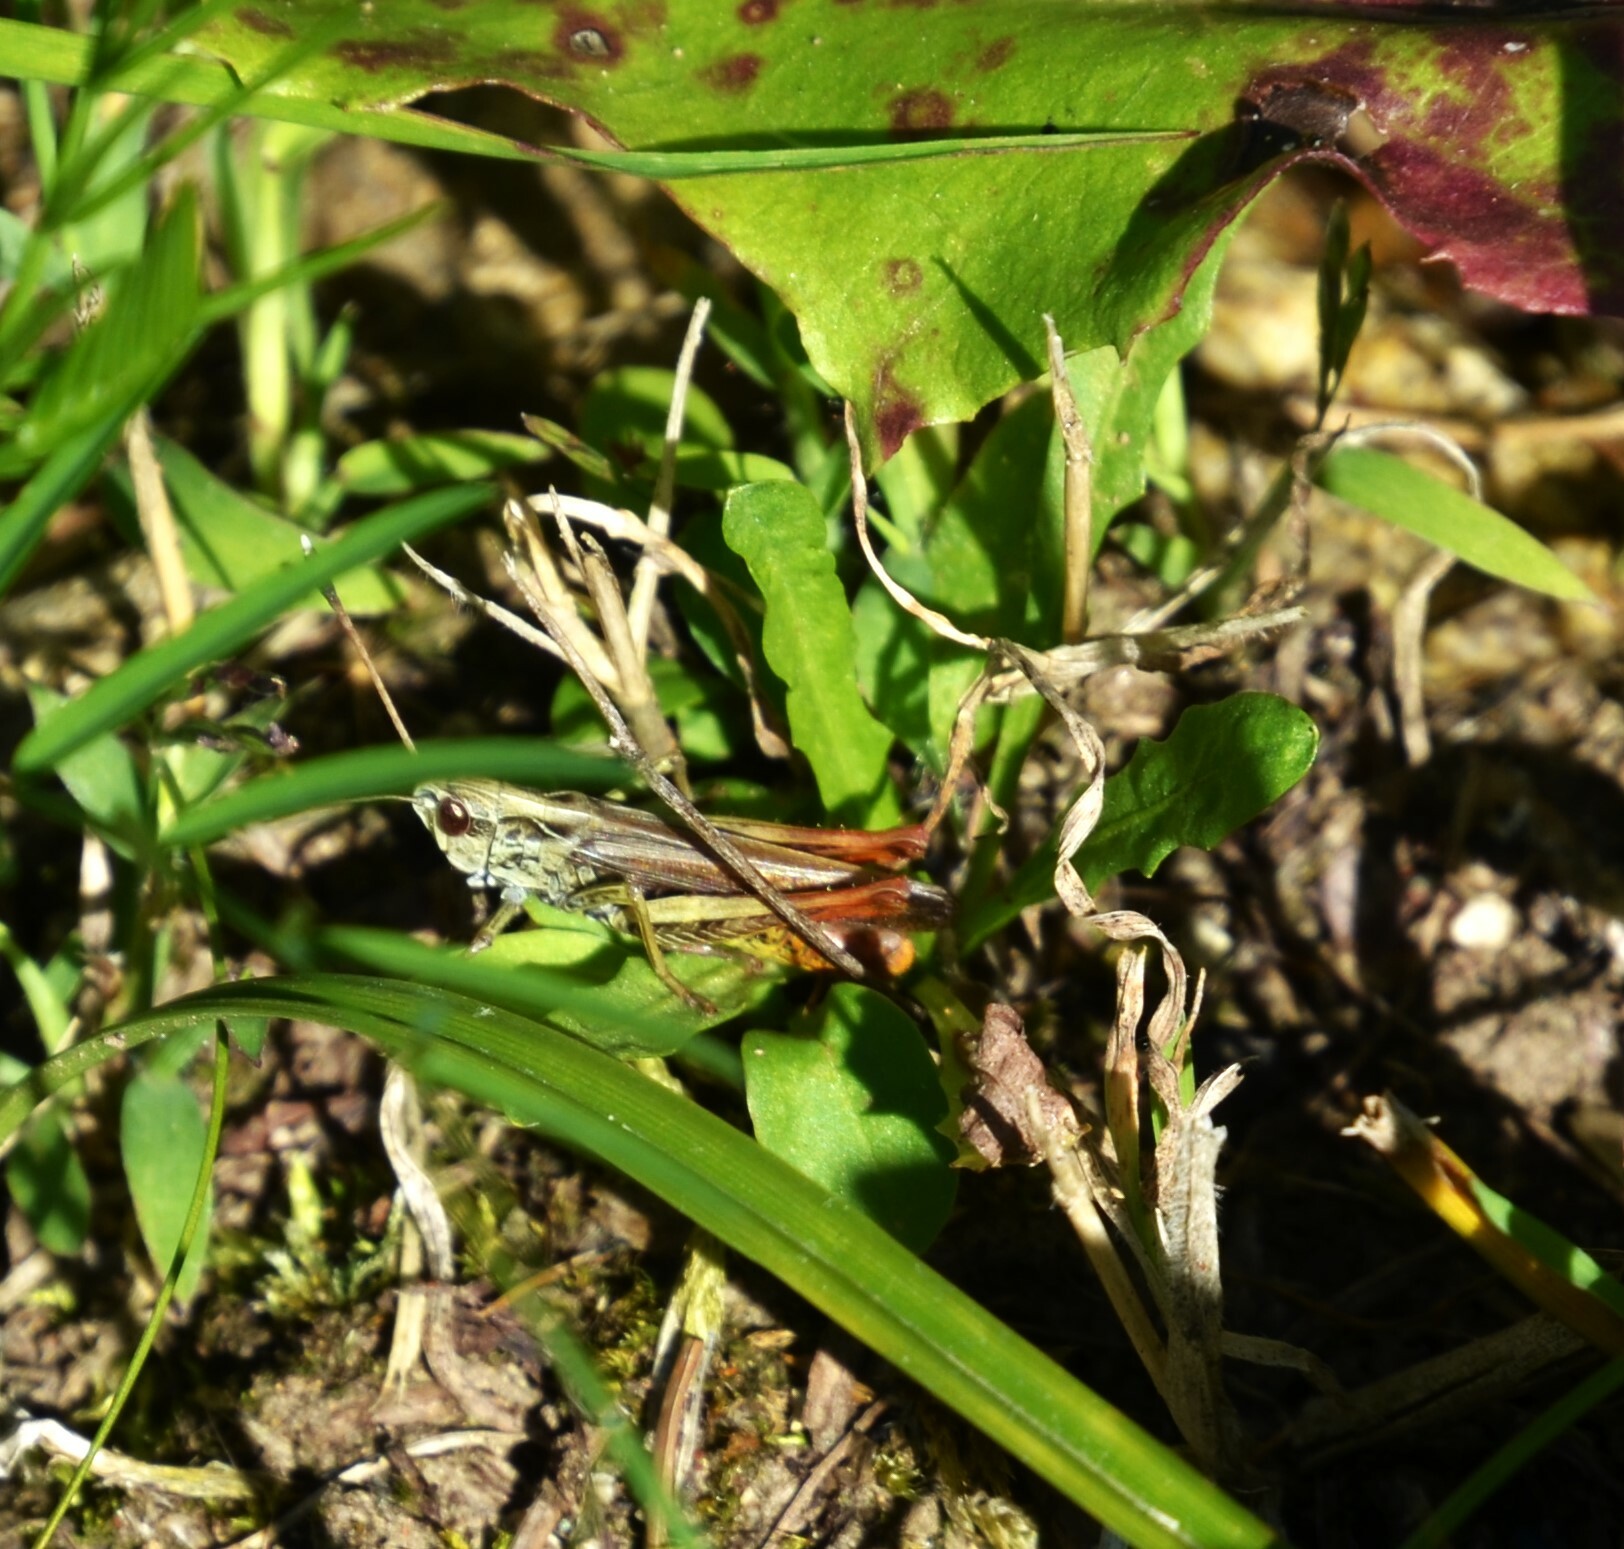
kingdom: Animalia
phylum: Arthropoda
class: Insecta
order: Orthoptera
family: Acrididae
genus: Gomphocerippus
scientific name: Gomphocerippus rufus
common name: Rufous grasshopper
